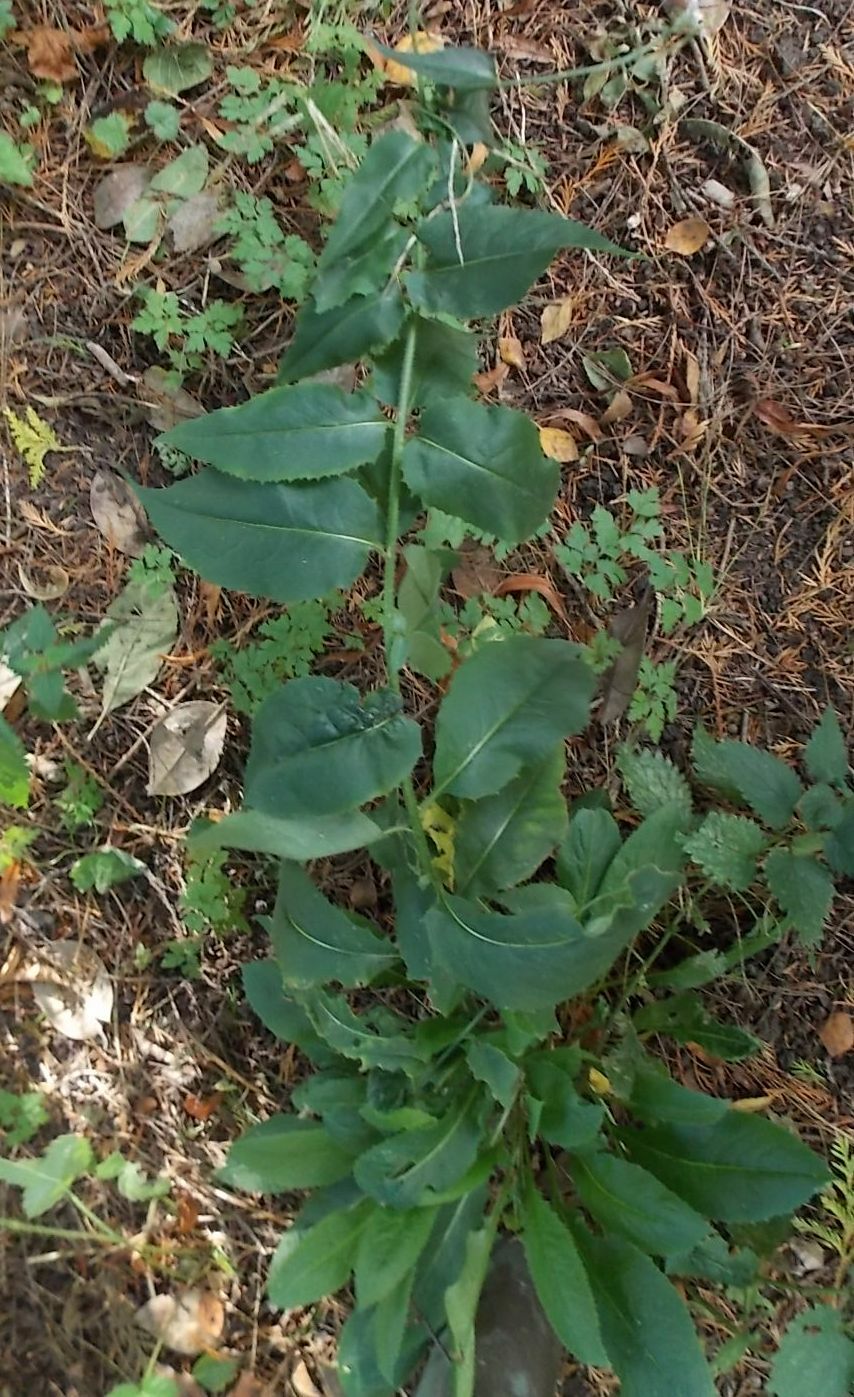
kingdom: Plantae
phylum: Tracheophyta
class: Magnoliopsida
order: Brassicales
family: Brassicaceae
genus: Hesperis
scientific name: Hesperis matronalis
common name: Dame's-violet
